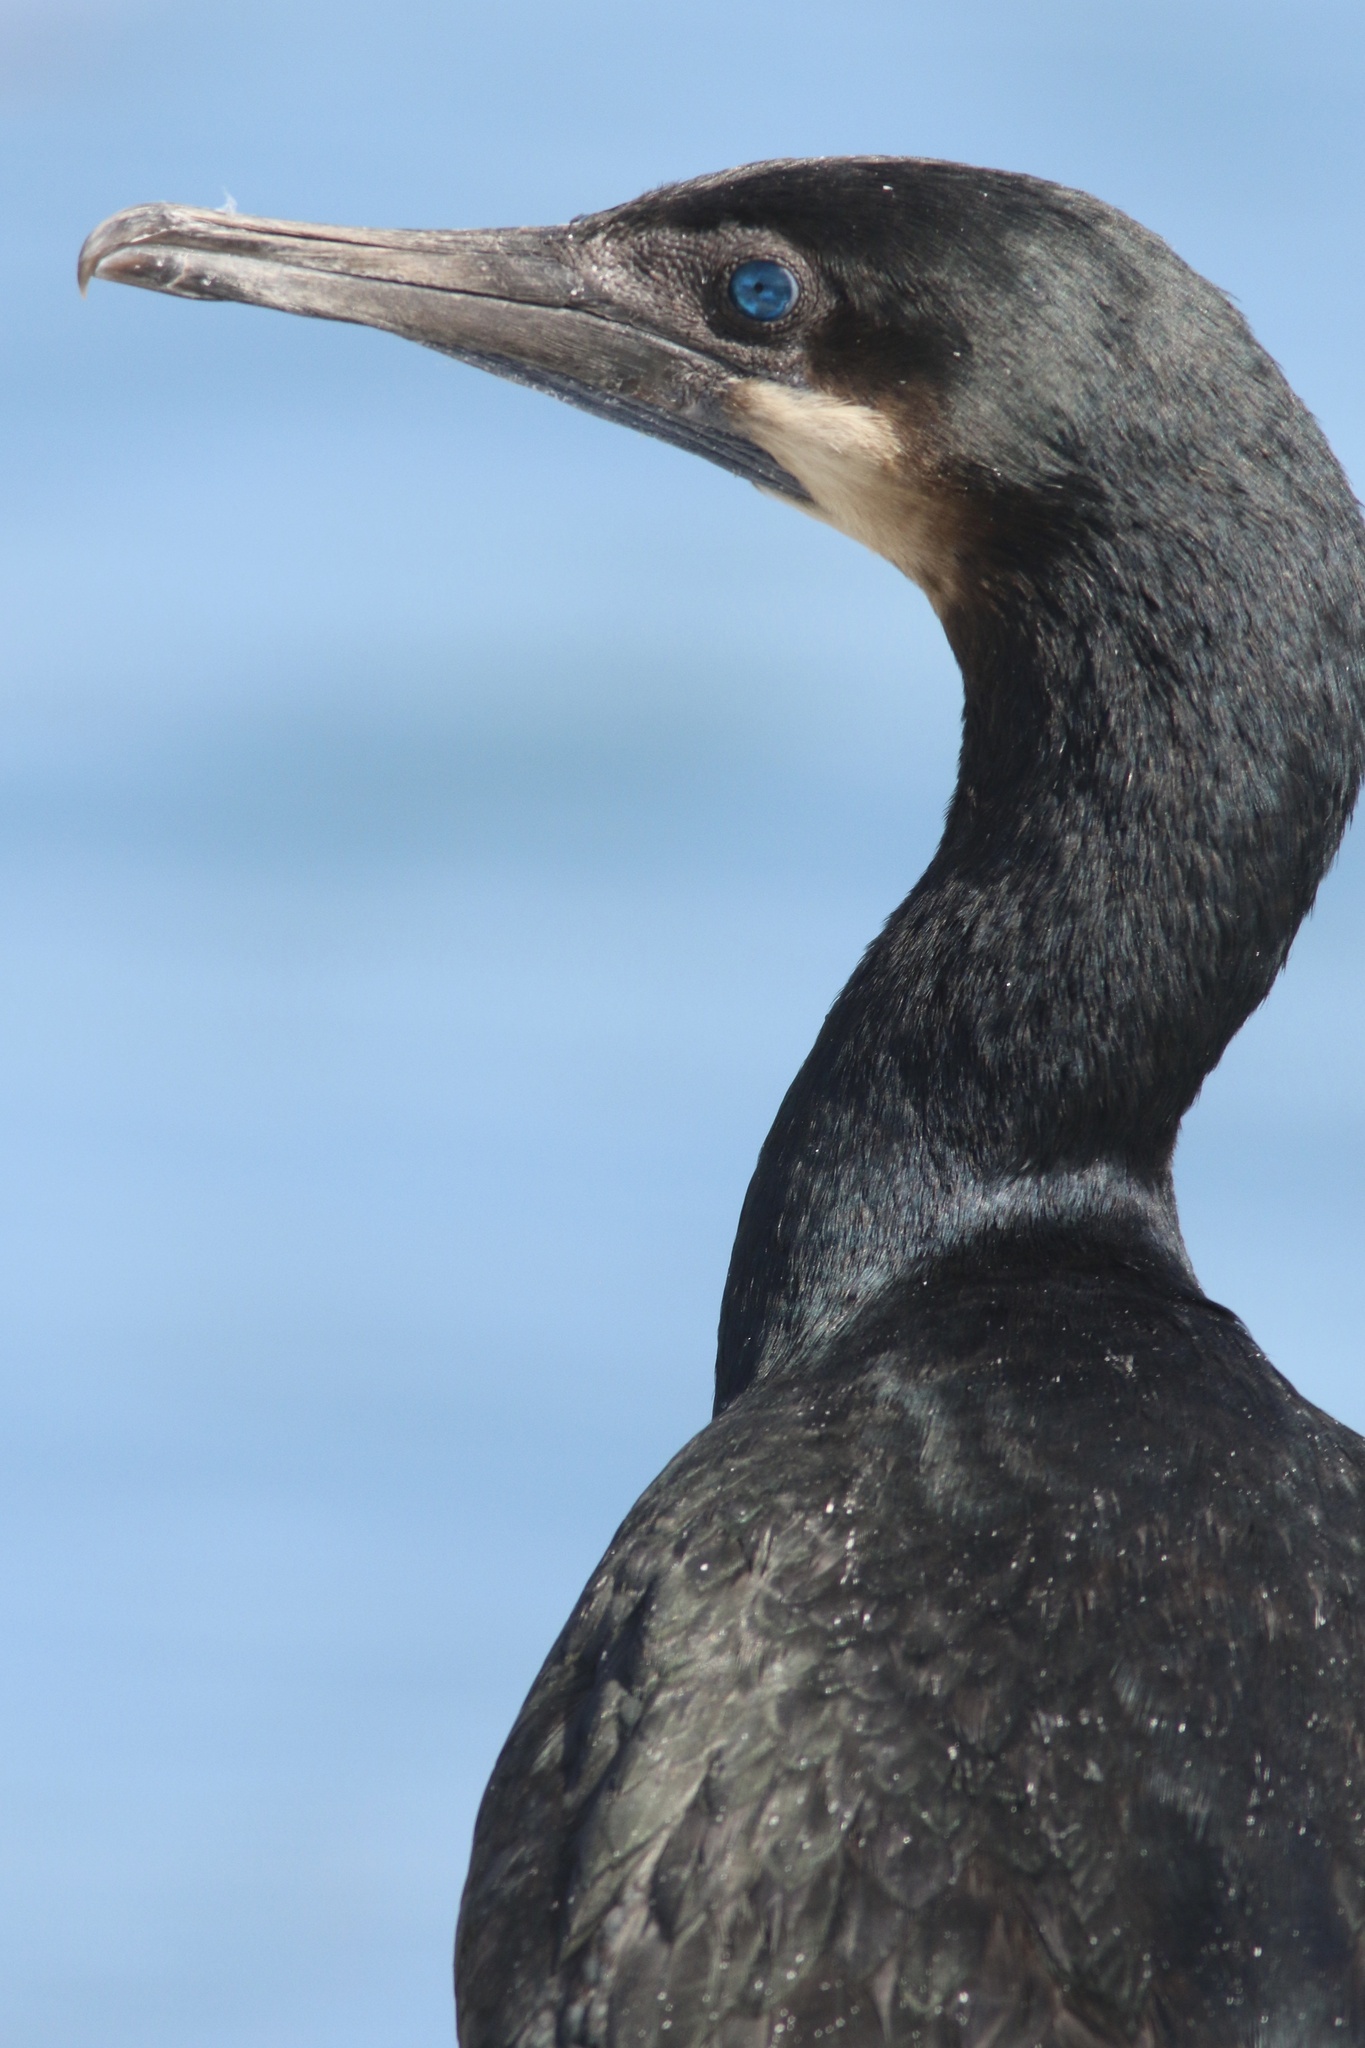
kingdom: Animalia
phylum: Chordata
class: Aves
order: Suliformes
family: Phalacrocoracidae
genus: Urile
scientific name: Urile penicillatus
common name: Brandt's cormorant
